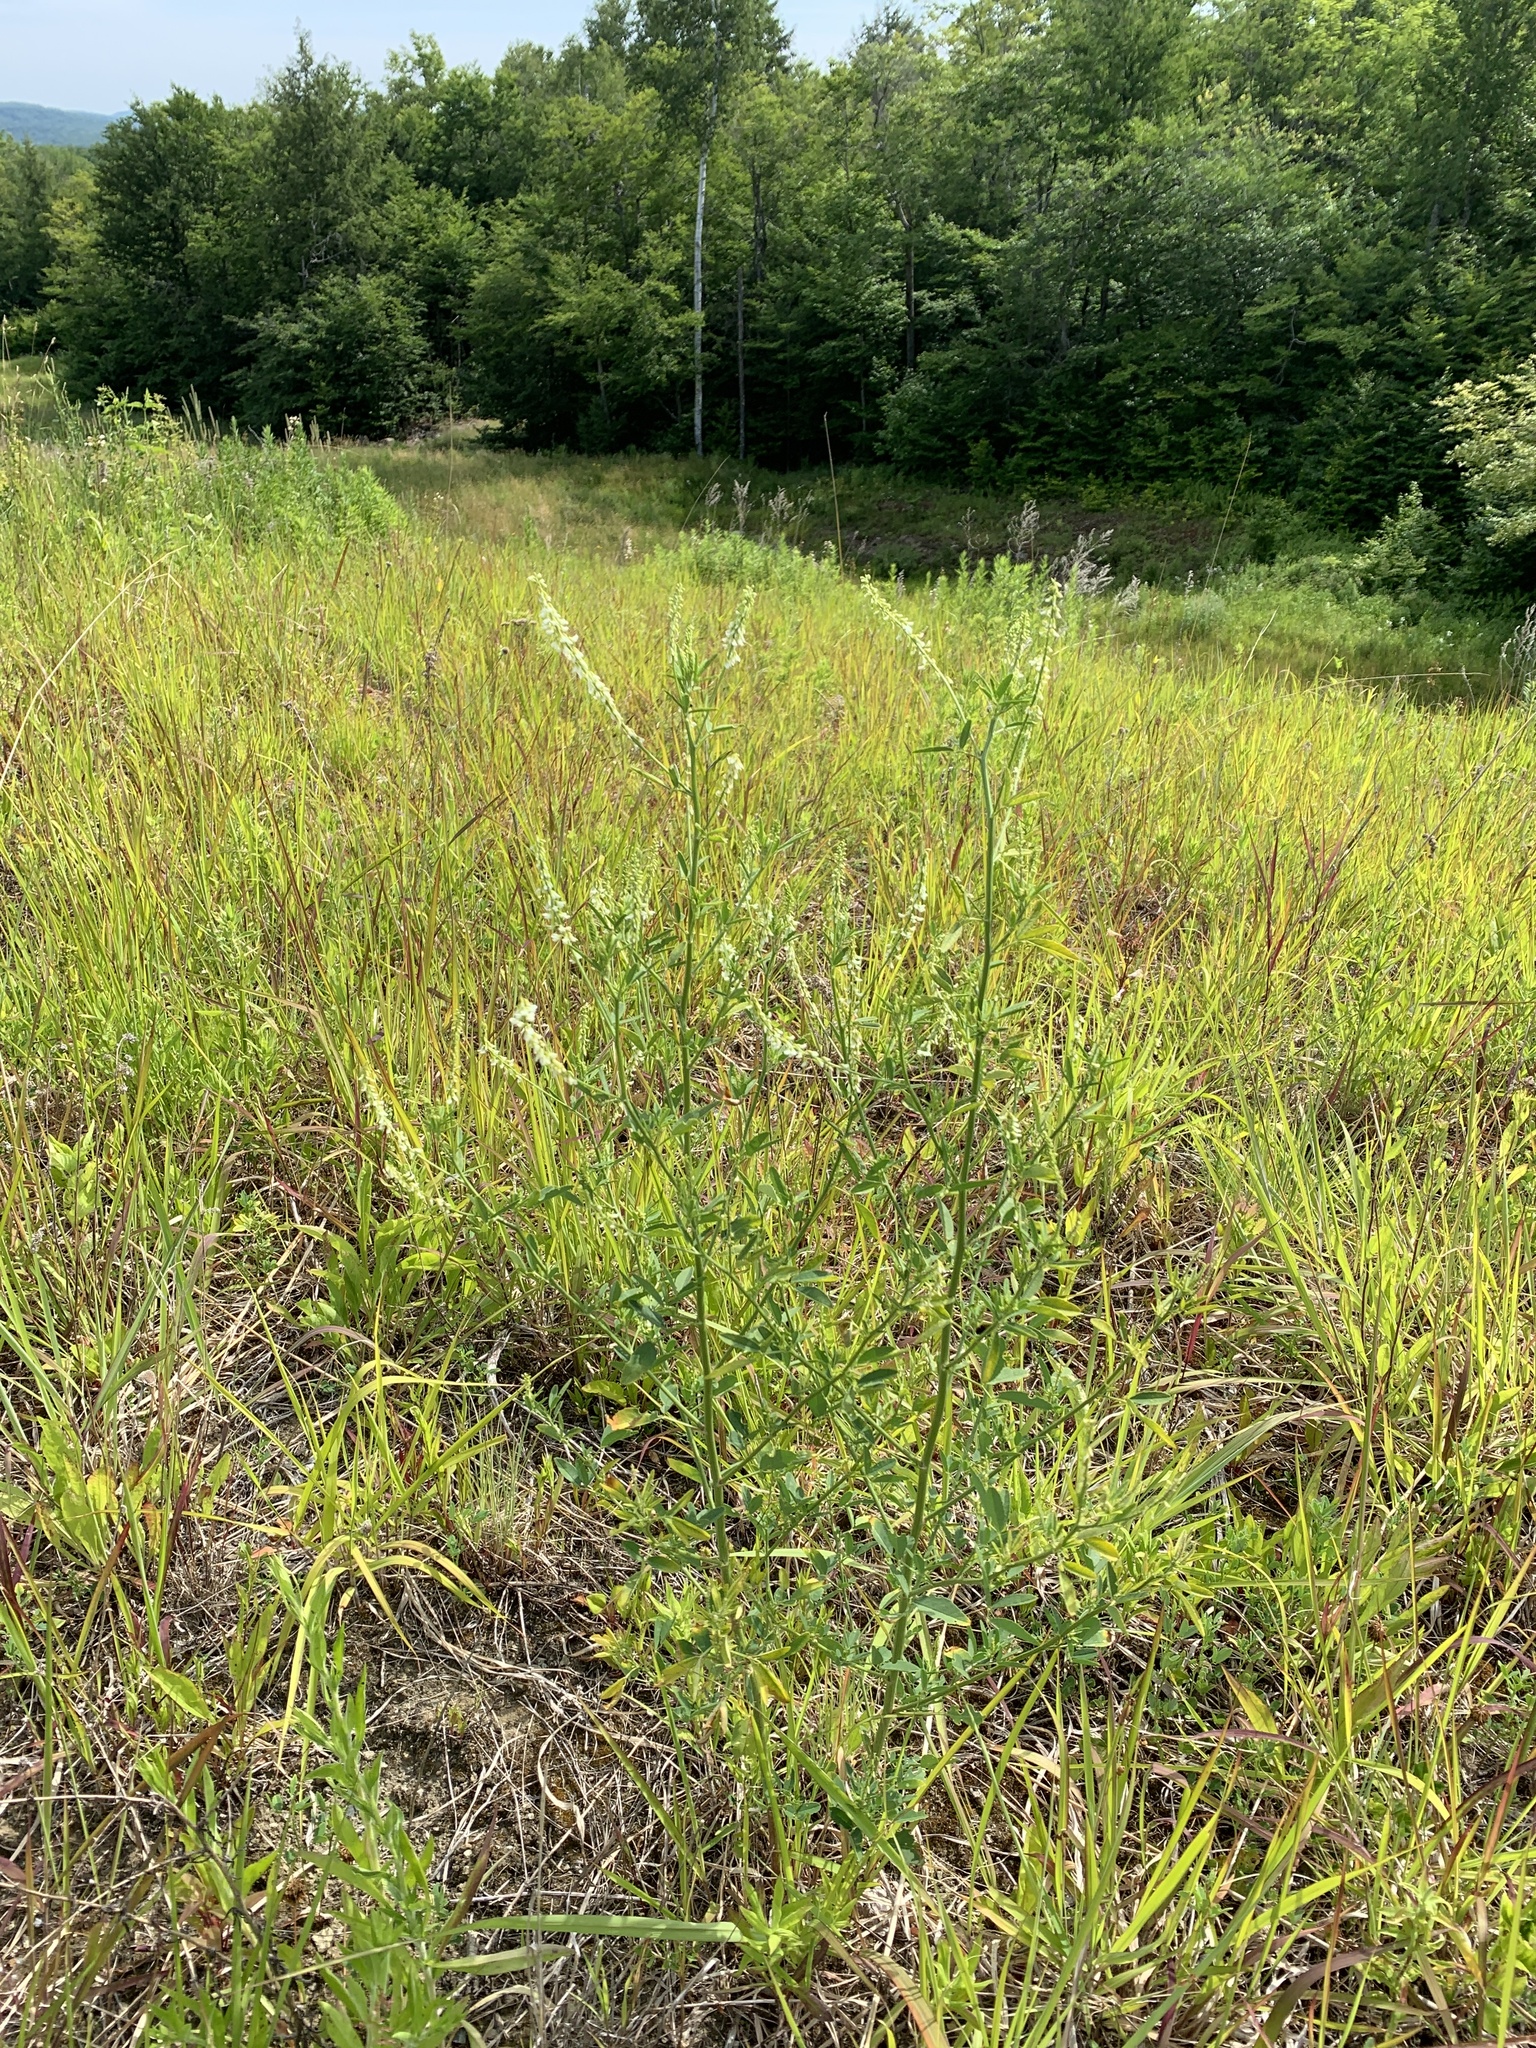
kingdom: Plantae
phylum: Tracheophyta
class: Magnoliopsida
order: Fabales
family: Fabaceae
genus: Melilotus
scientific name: Melilotus albus
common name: White melilot
